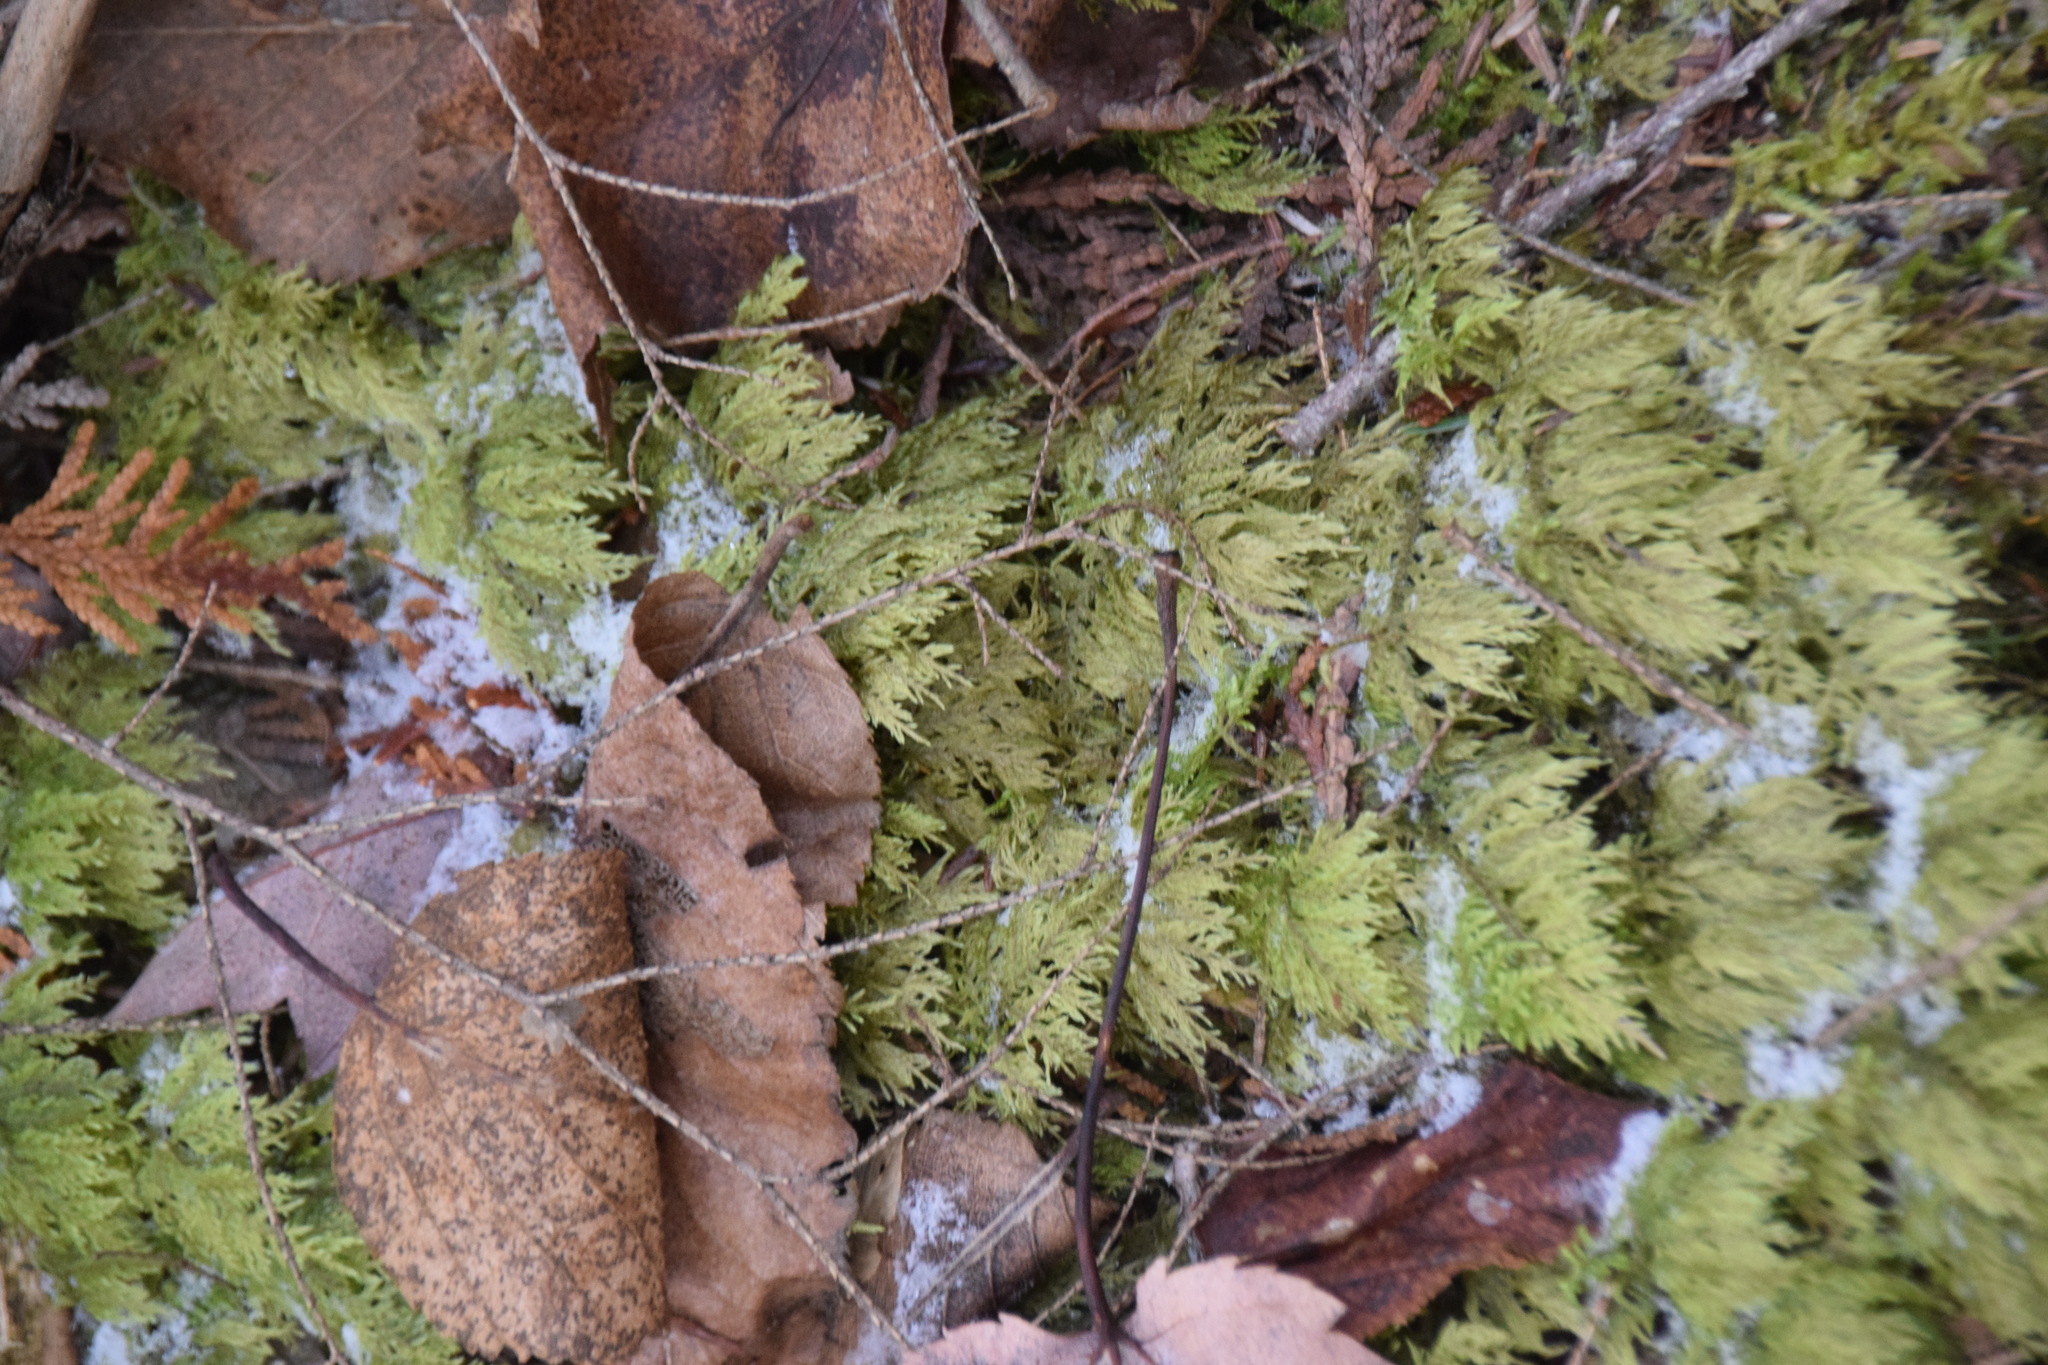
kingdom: Plantae
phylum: Bryophyta
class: Bryopsida
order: Hypnales
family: Hylocomiaceae
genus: Hylocomium
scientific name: Hylocomium splendens
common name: Stairstep moss
